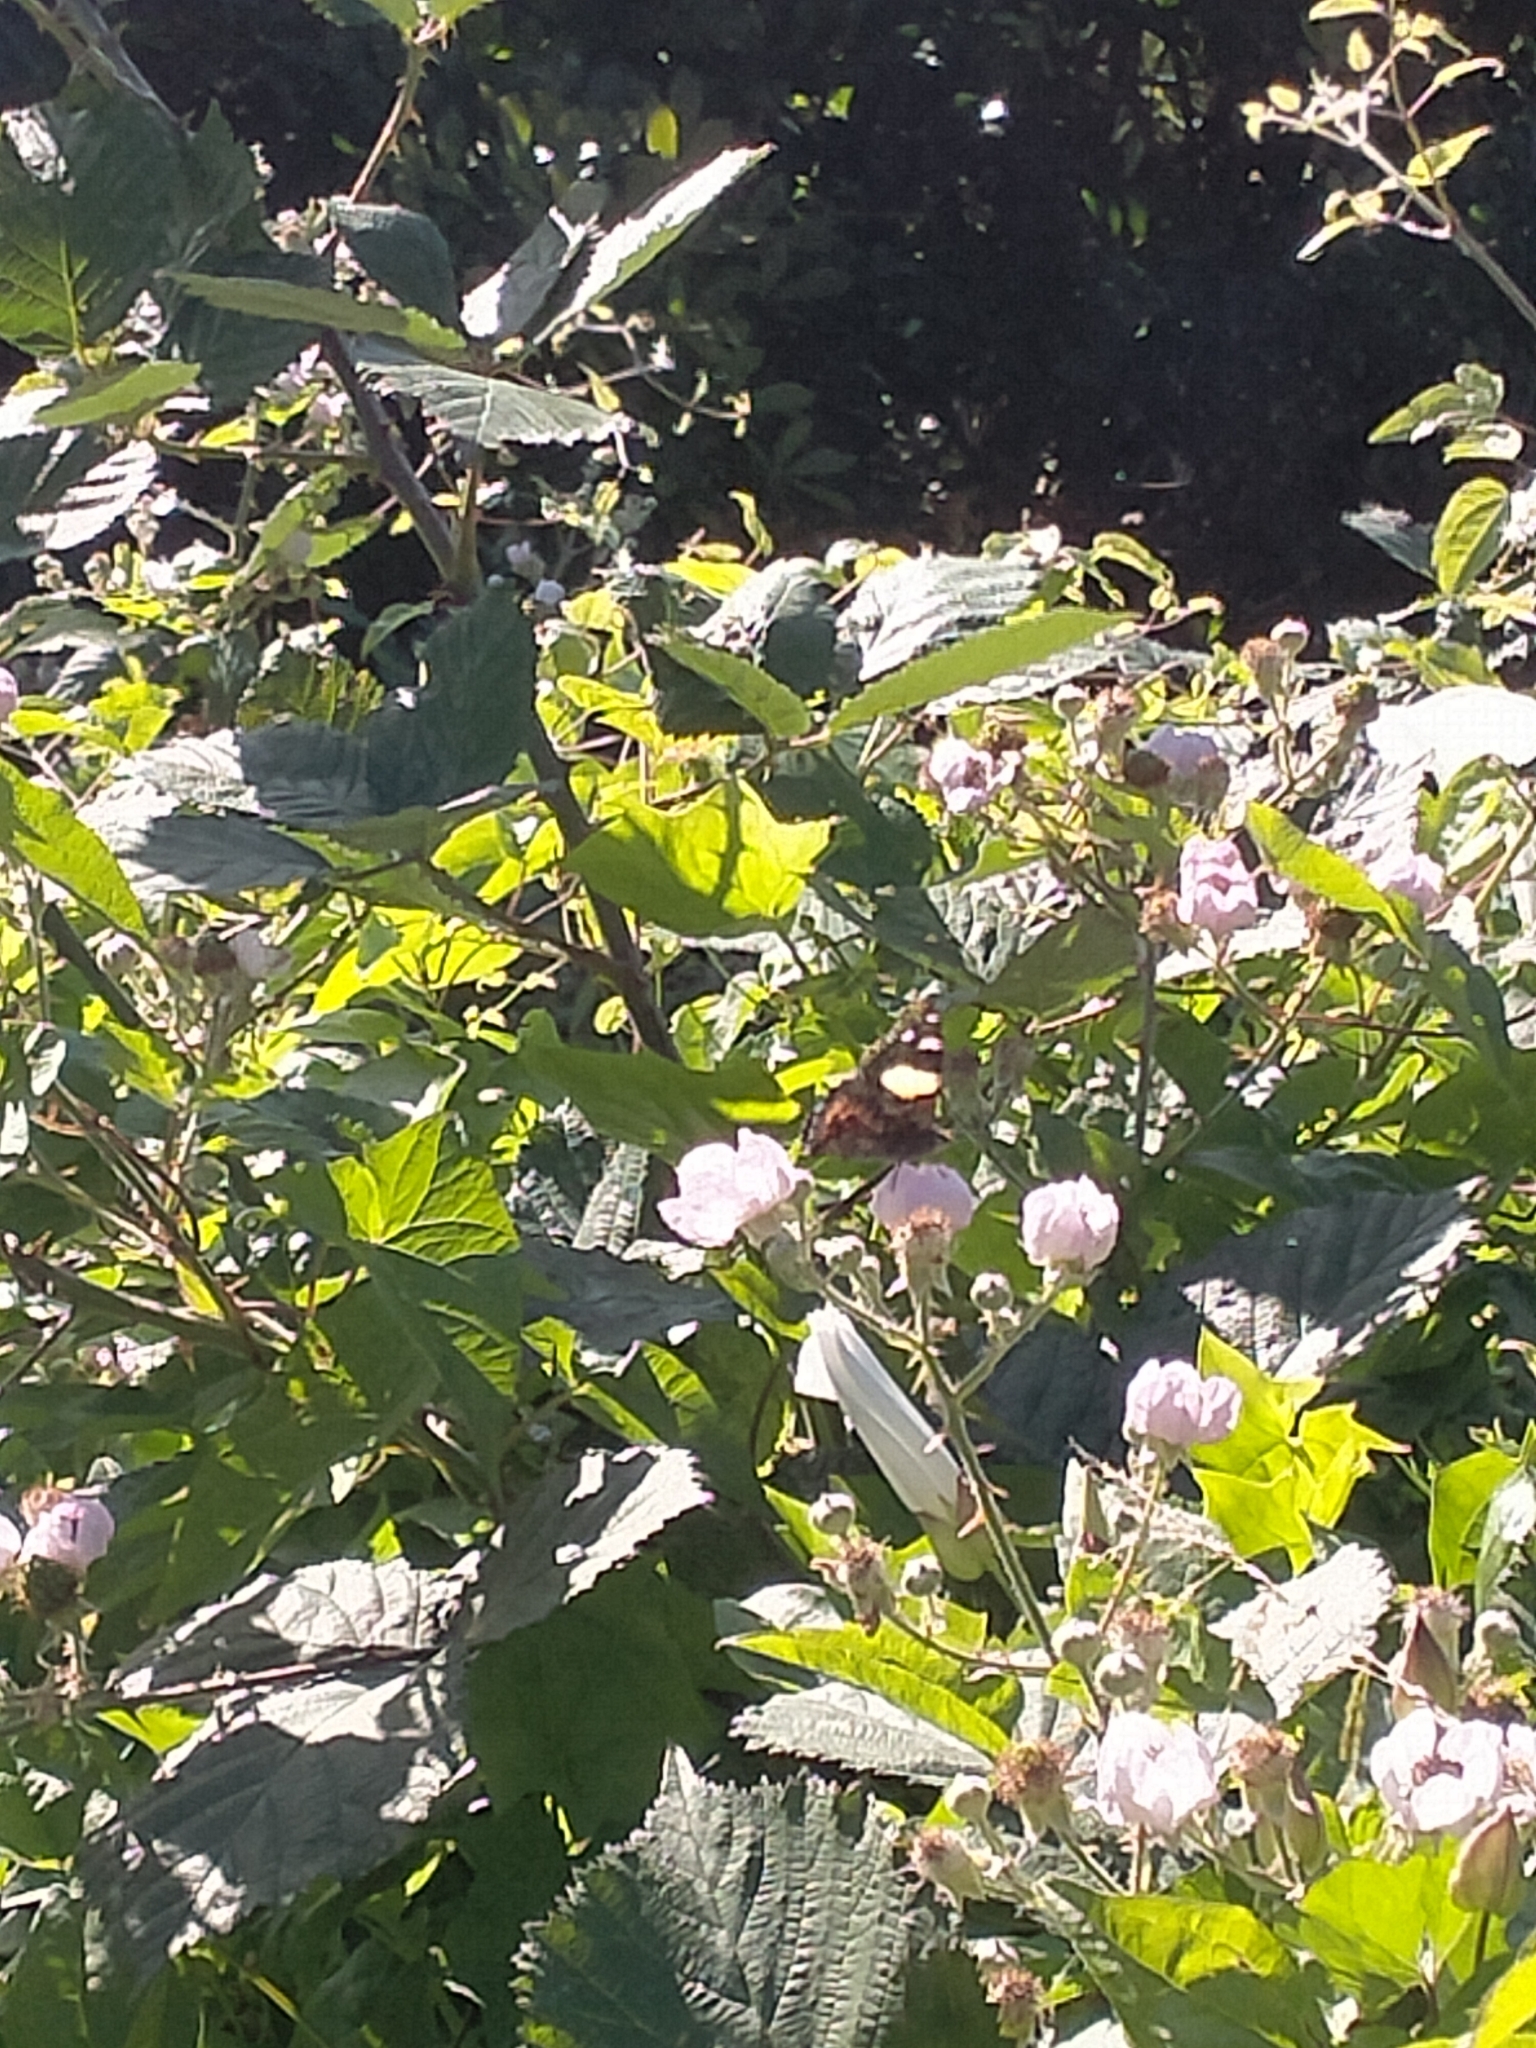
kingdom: Animalia
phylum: Arthropoda
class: Insecta
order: Lepidoptera
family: Nymphalidae
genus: Vanessa
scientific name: Vanessa itea
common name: Yellow admiral
